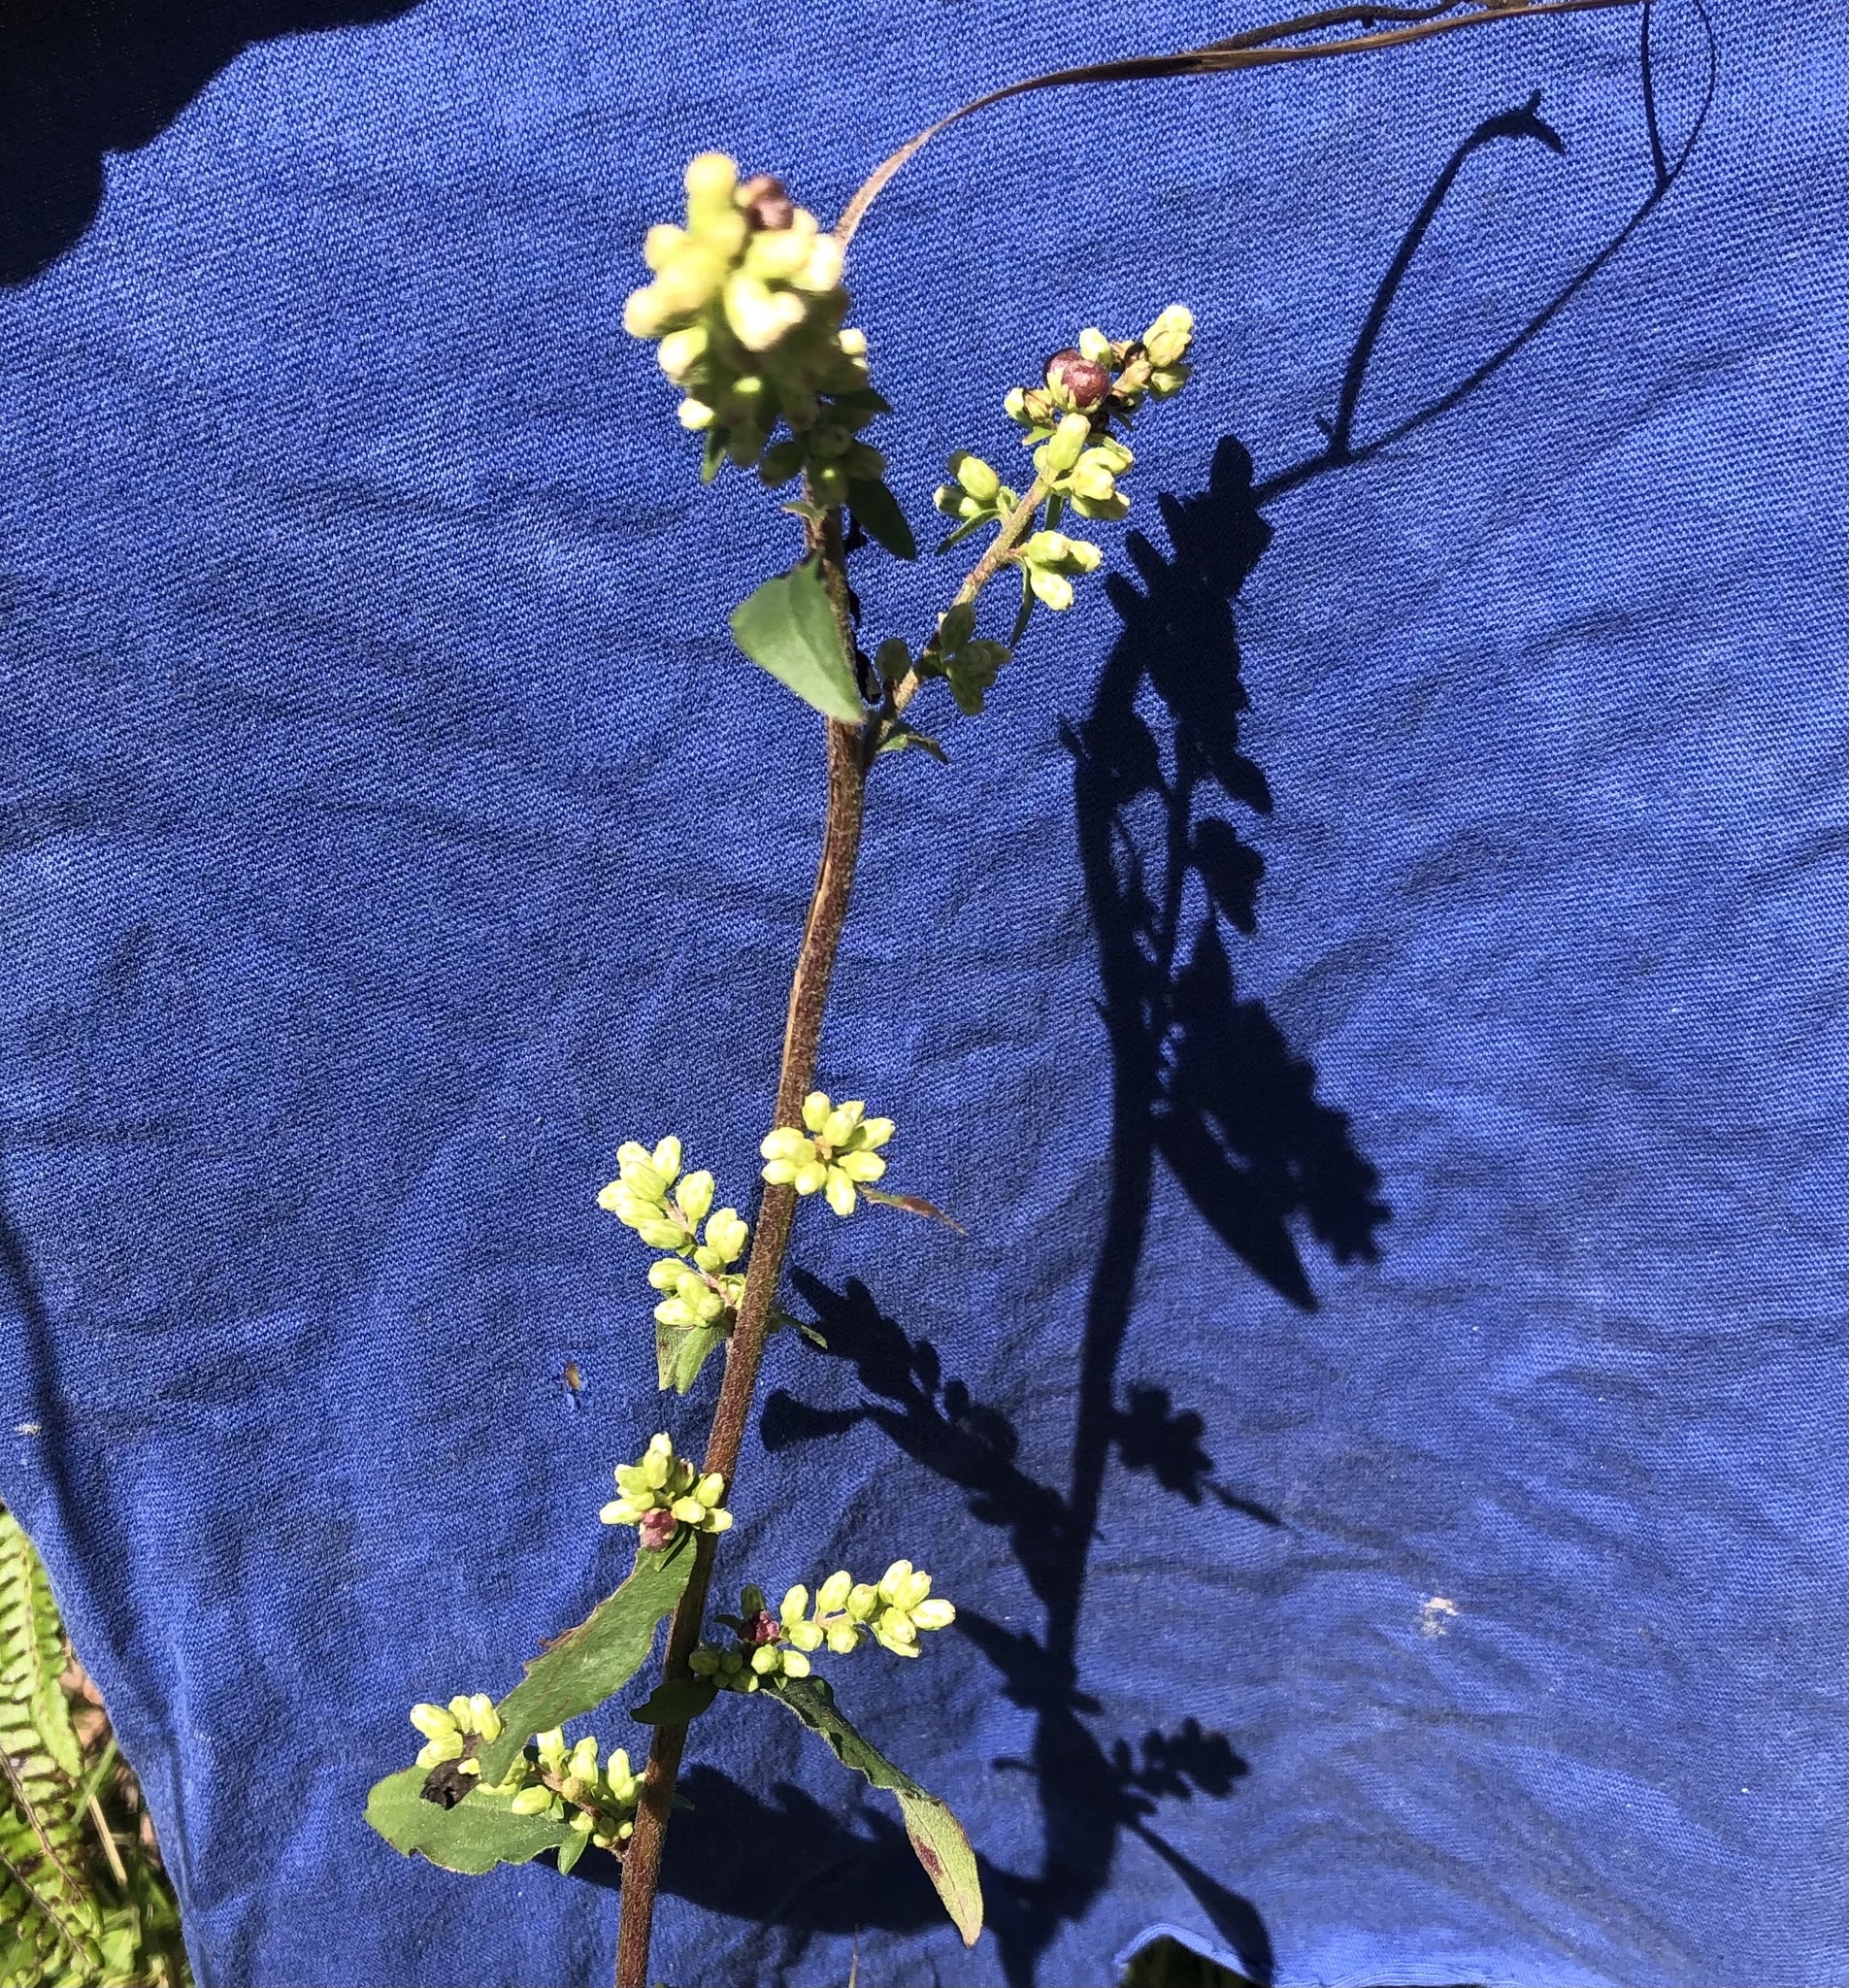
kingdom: Plantae
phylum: Tracheophyta
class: Magnoliopsida
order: Asterales
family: Asteraceae
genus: Solidago
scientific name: Solidago bicolor
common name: Silverrod
